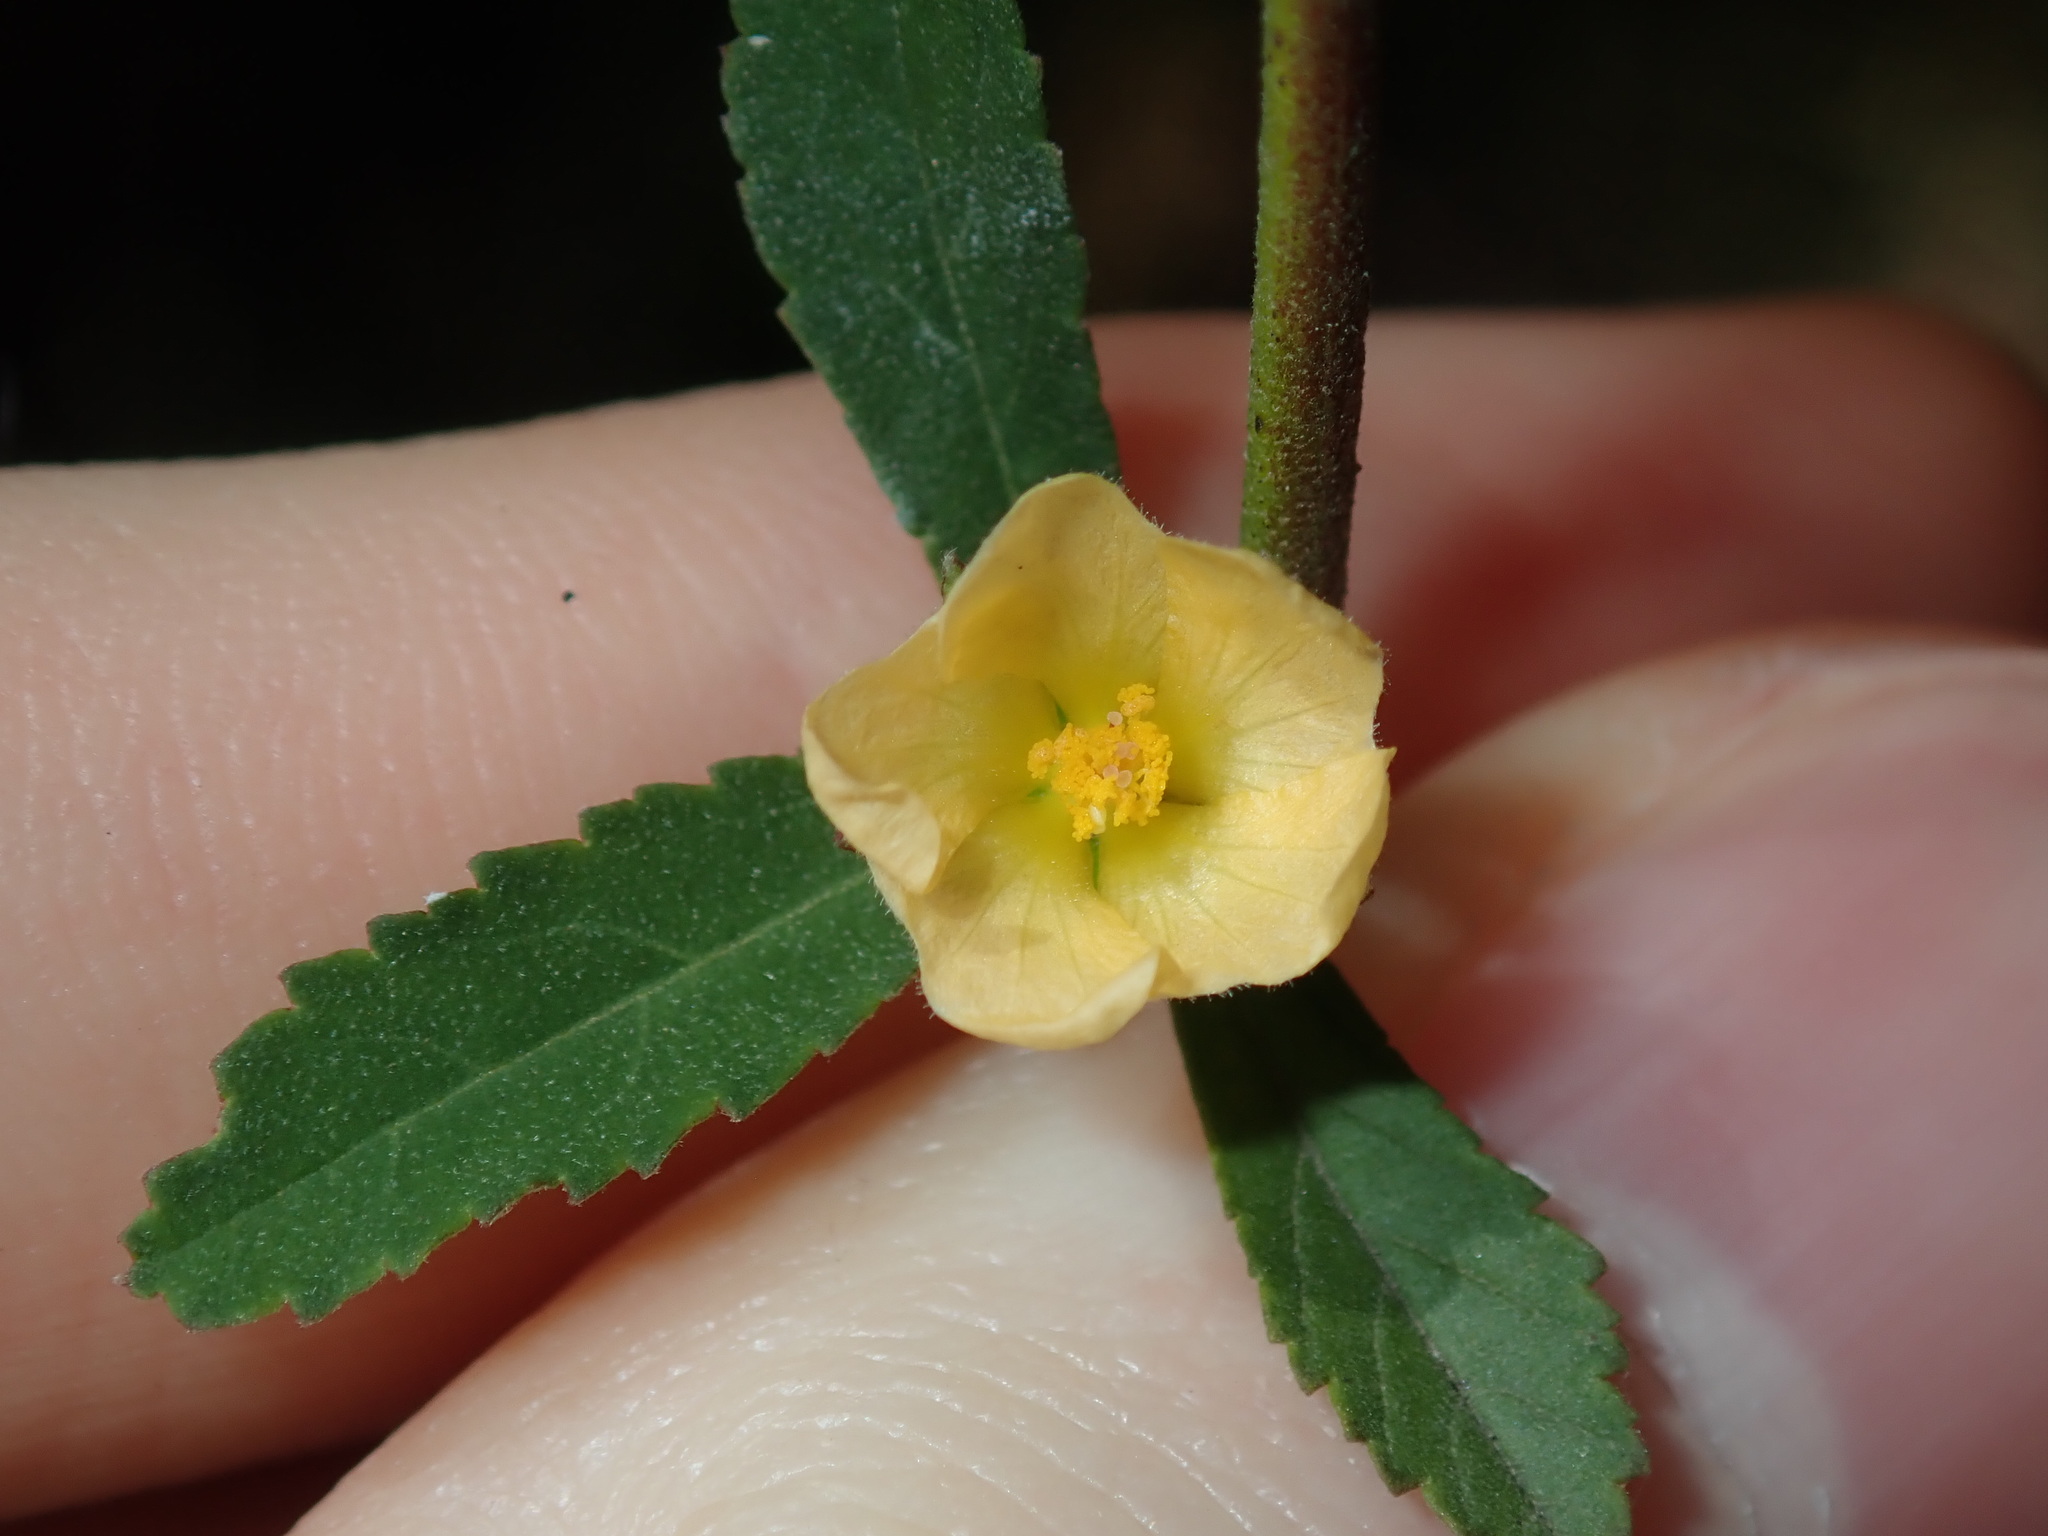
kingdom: Plantae
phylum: Tracheophyta
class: Magnoliopsida
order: Malvales
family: Malvaceae
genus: Sida
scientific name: Sida rhombifolia
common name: Queensland-hemp
